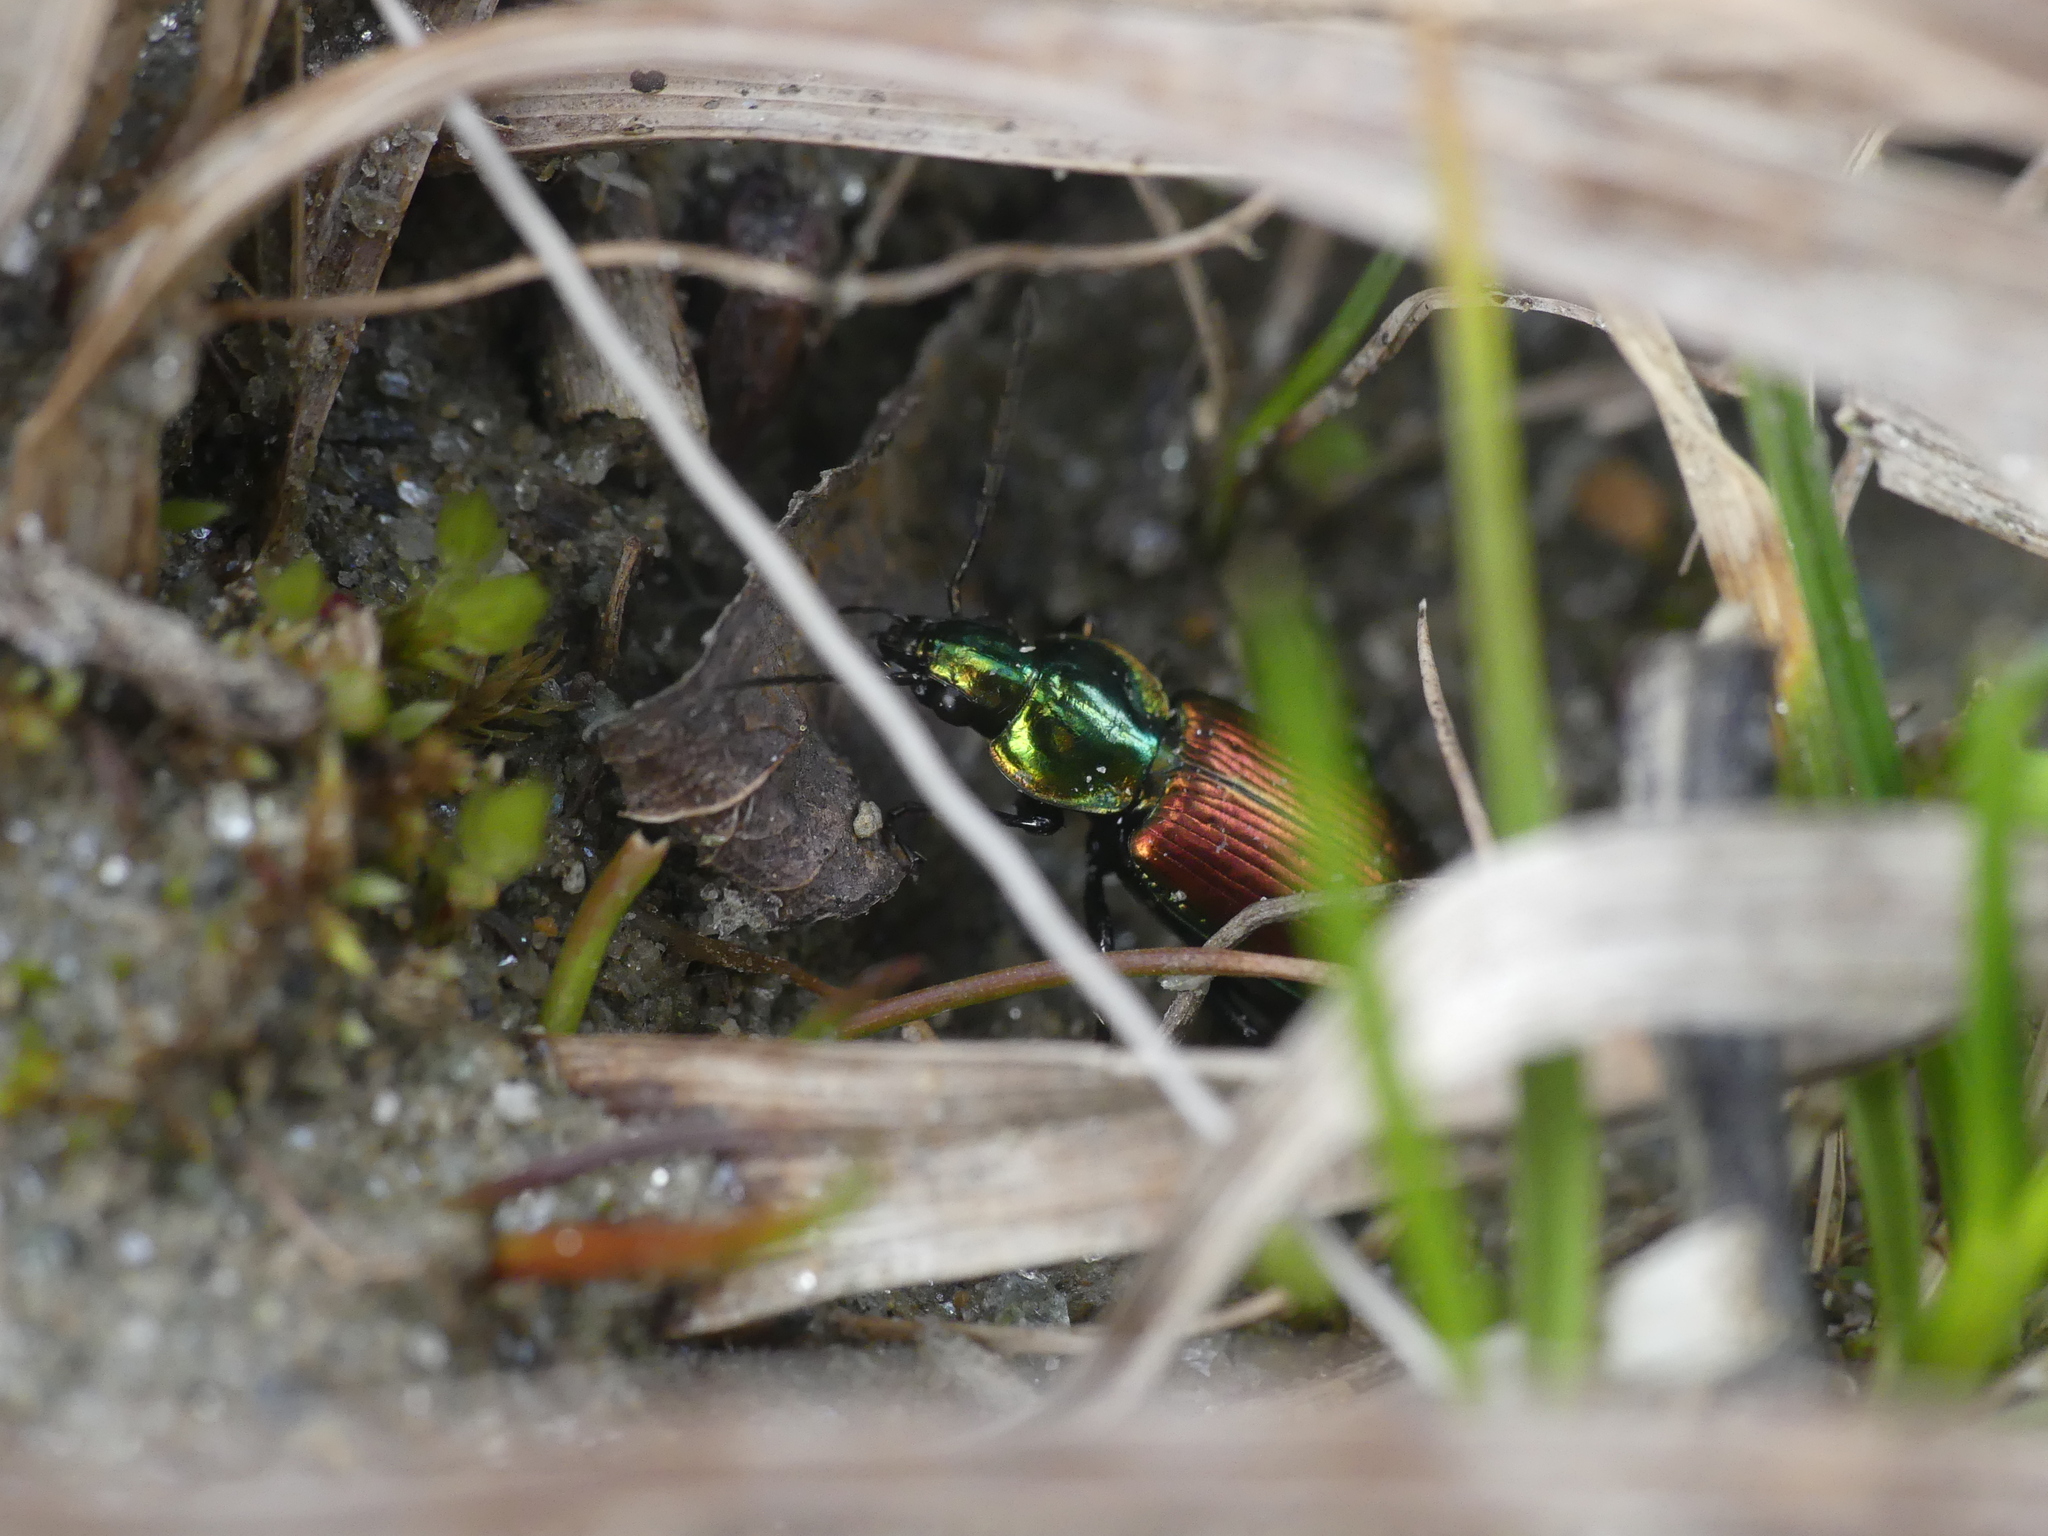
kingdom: Animalia
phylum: Arthropoda
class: Insecta
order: Coleoptera
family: Carabidae
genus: Agonum
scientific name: Agonum sexpunctatum
